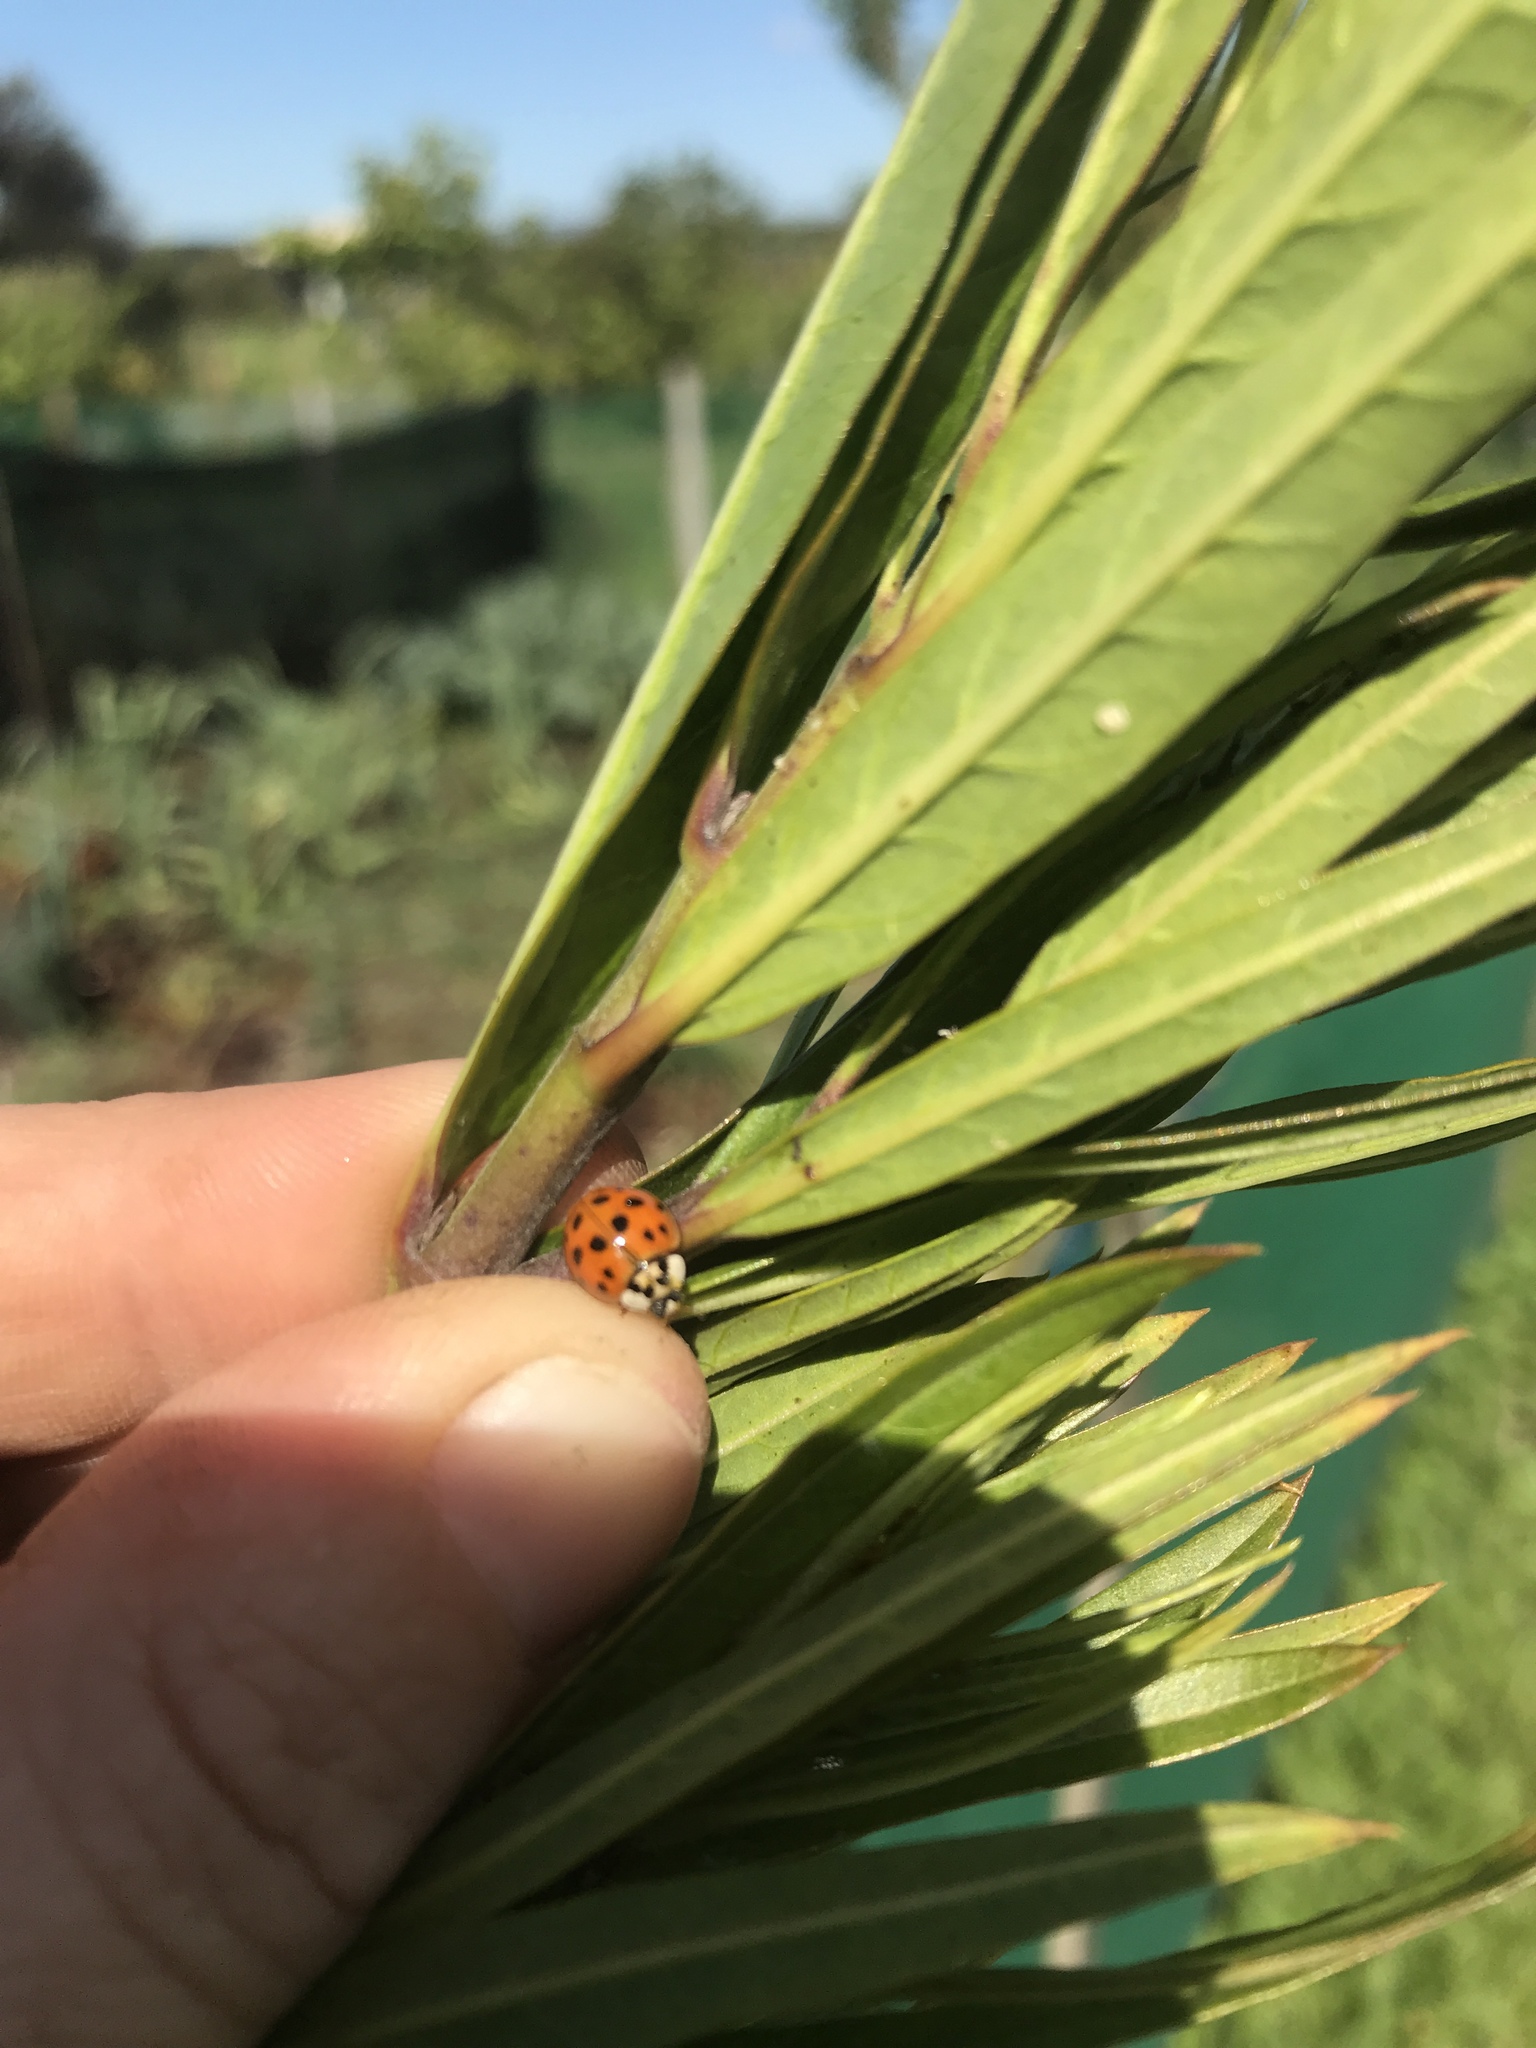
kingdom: Animalia
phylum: Arthropoda
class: Insecta
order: Coleoptera
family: Coccinellidae
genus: Harmonia
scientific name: Harmonia axyridis
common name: Harlequin ladybird
